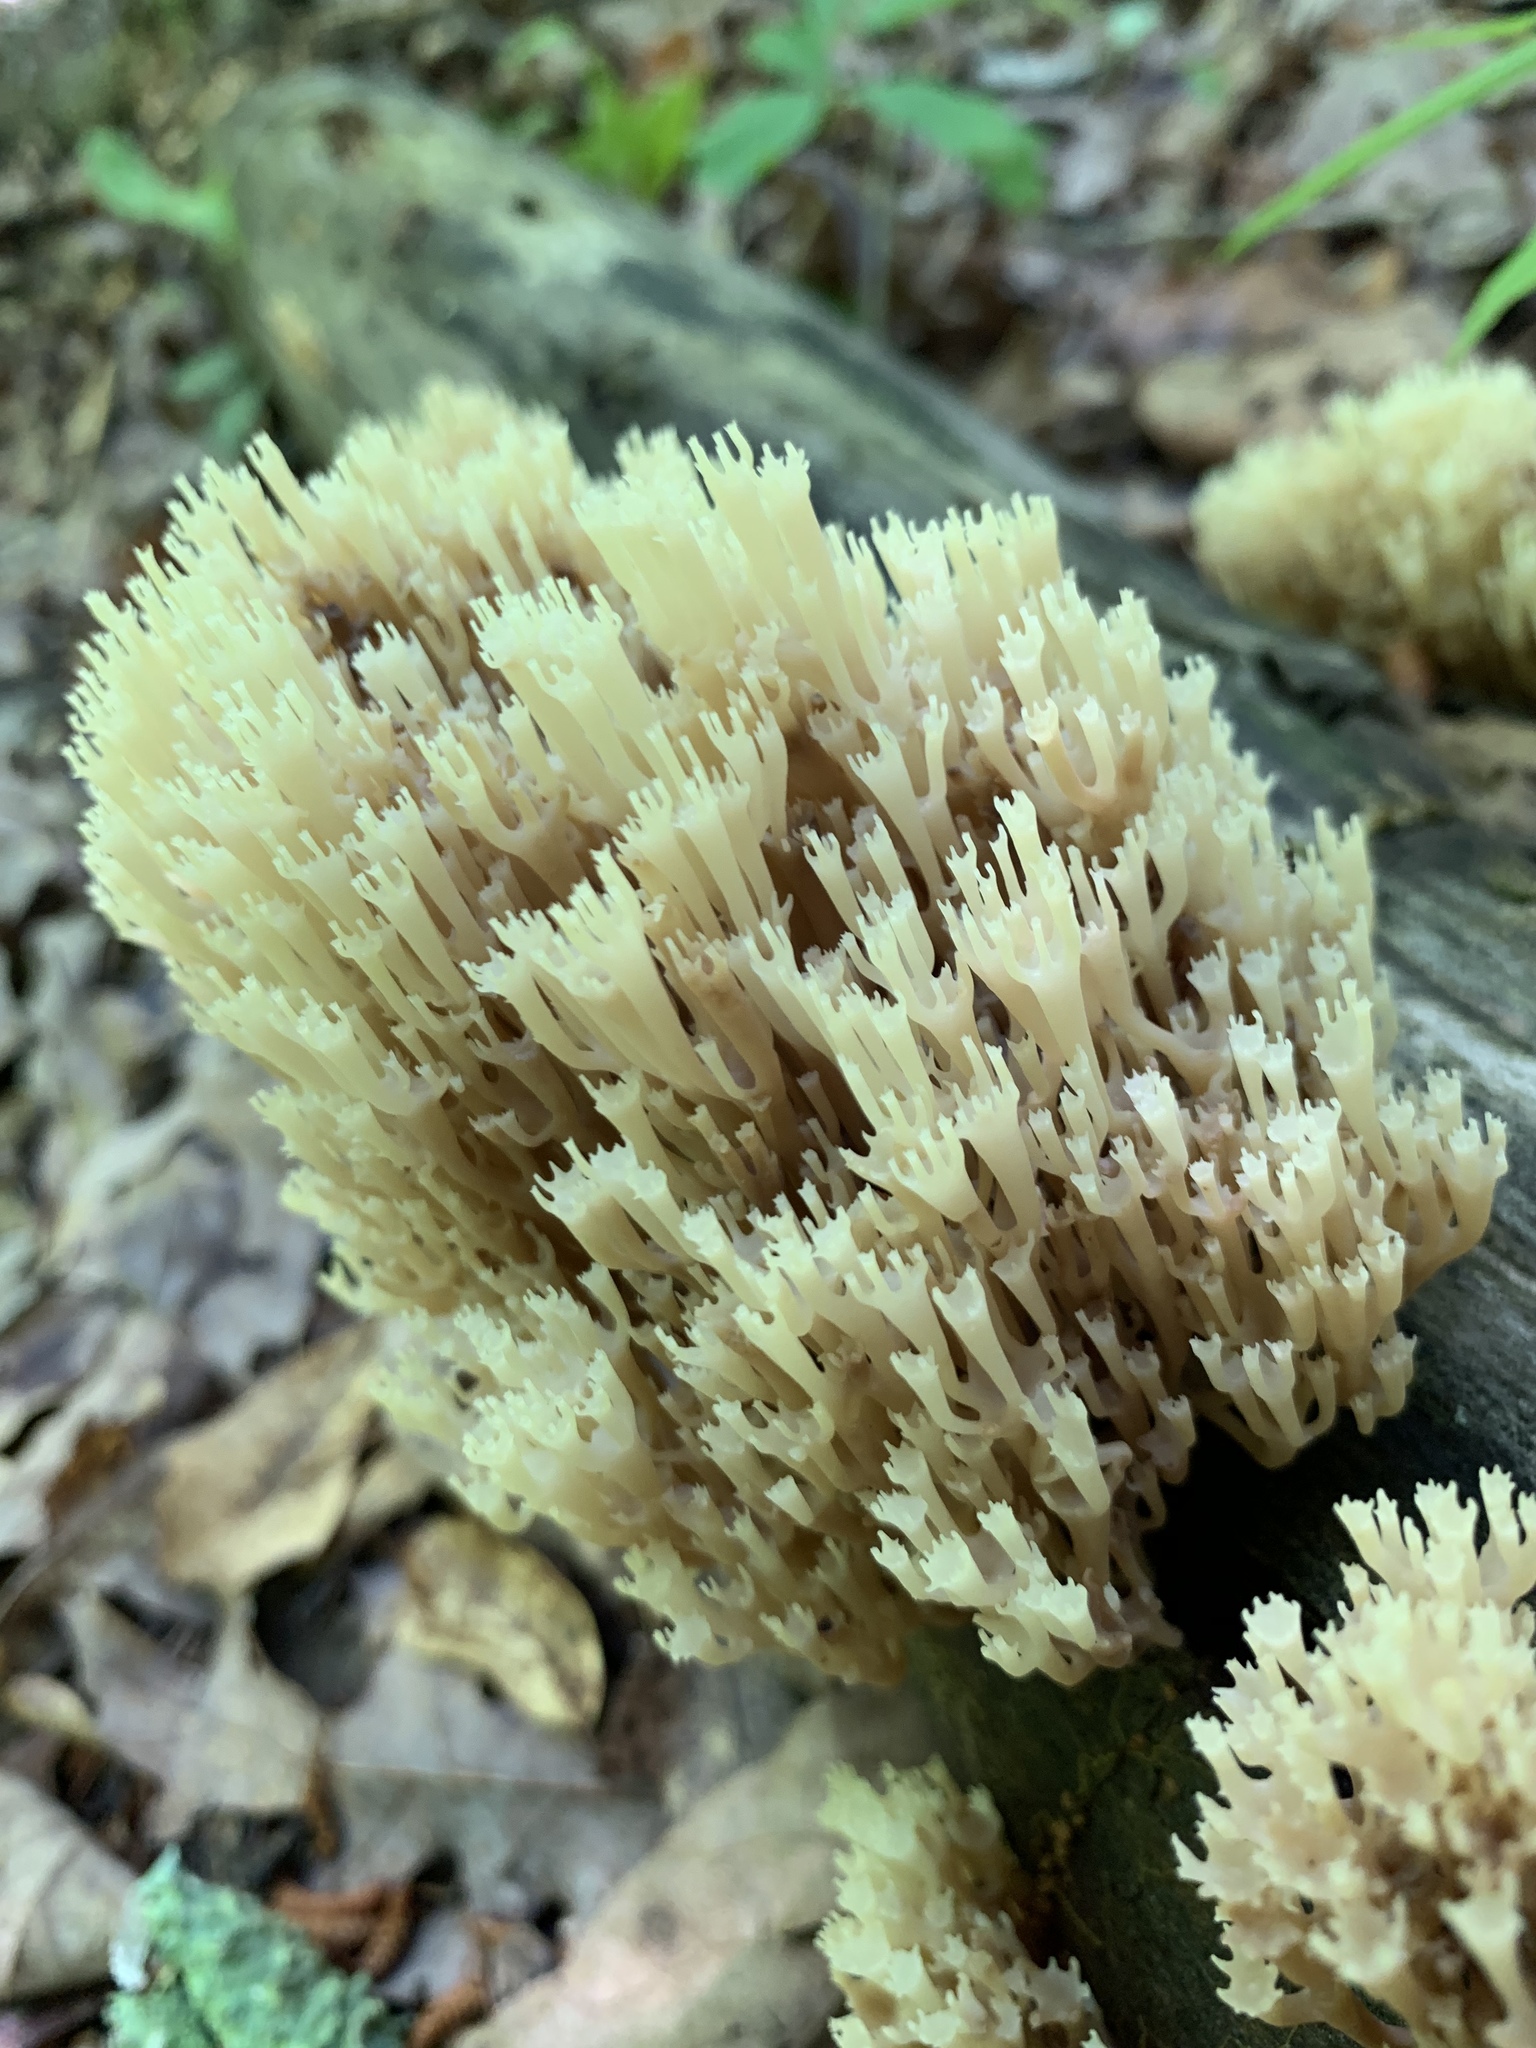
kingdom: Fungi
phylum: Basidiomycota
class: Agaricomycetes
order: Russulales
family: Auriscalpiaceae
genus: Artomyces
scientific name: Artomyces pyxidatus
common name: Crown-tipped coral fungus
